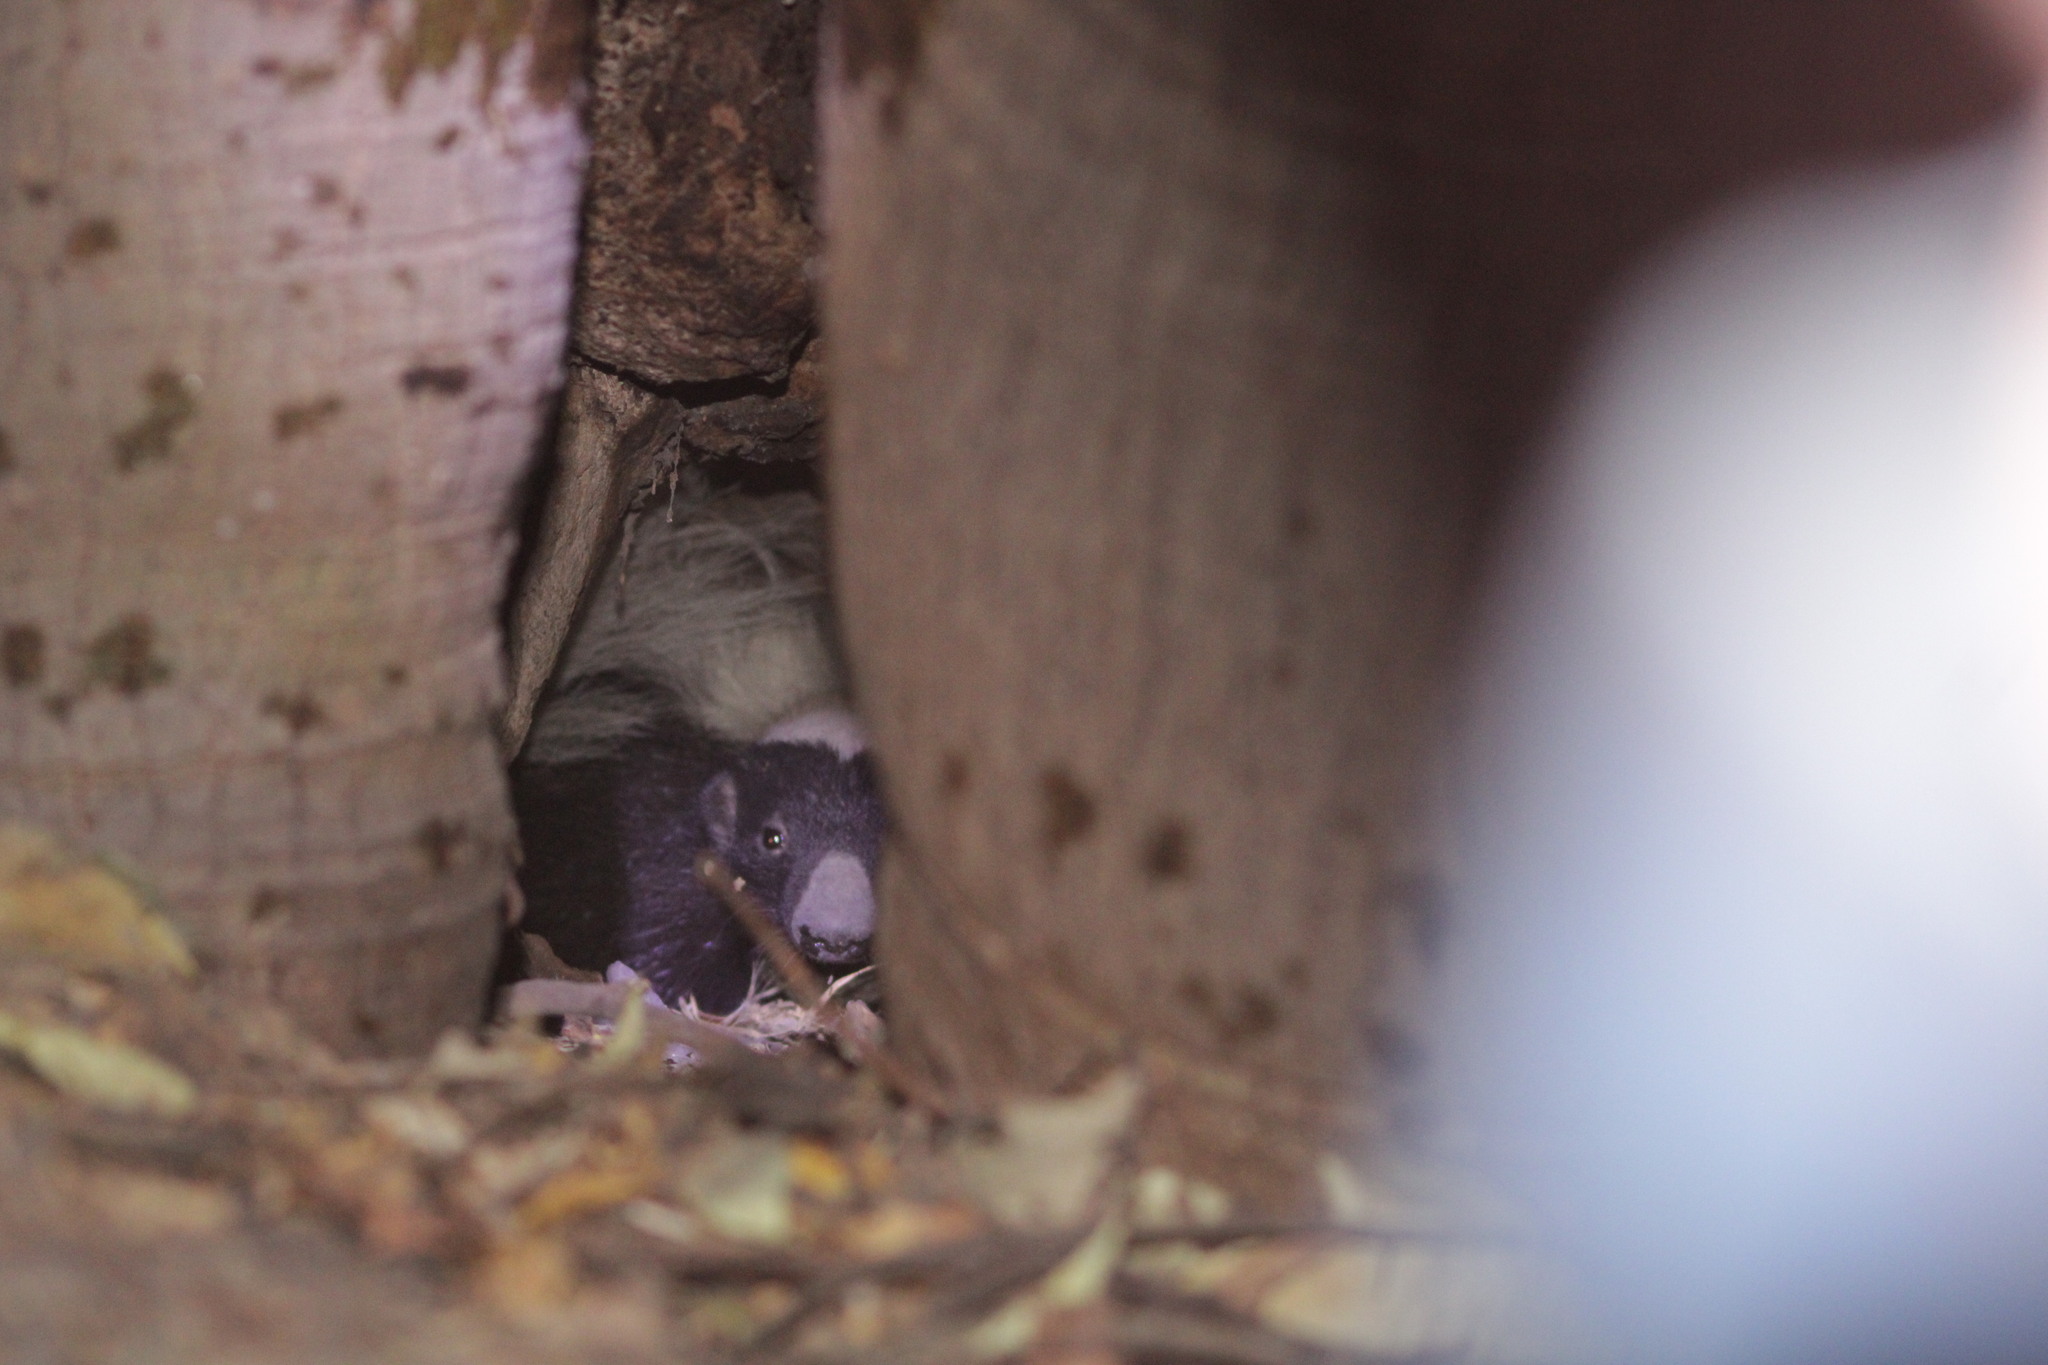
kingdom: Animalia
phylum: Chordata
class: Mammalia
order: Carnivora
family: Mephitidae
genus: Conepatus
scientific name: Conepatus leuconotus
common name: Eastern hog-nosed skunk
